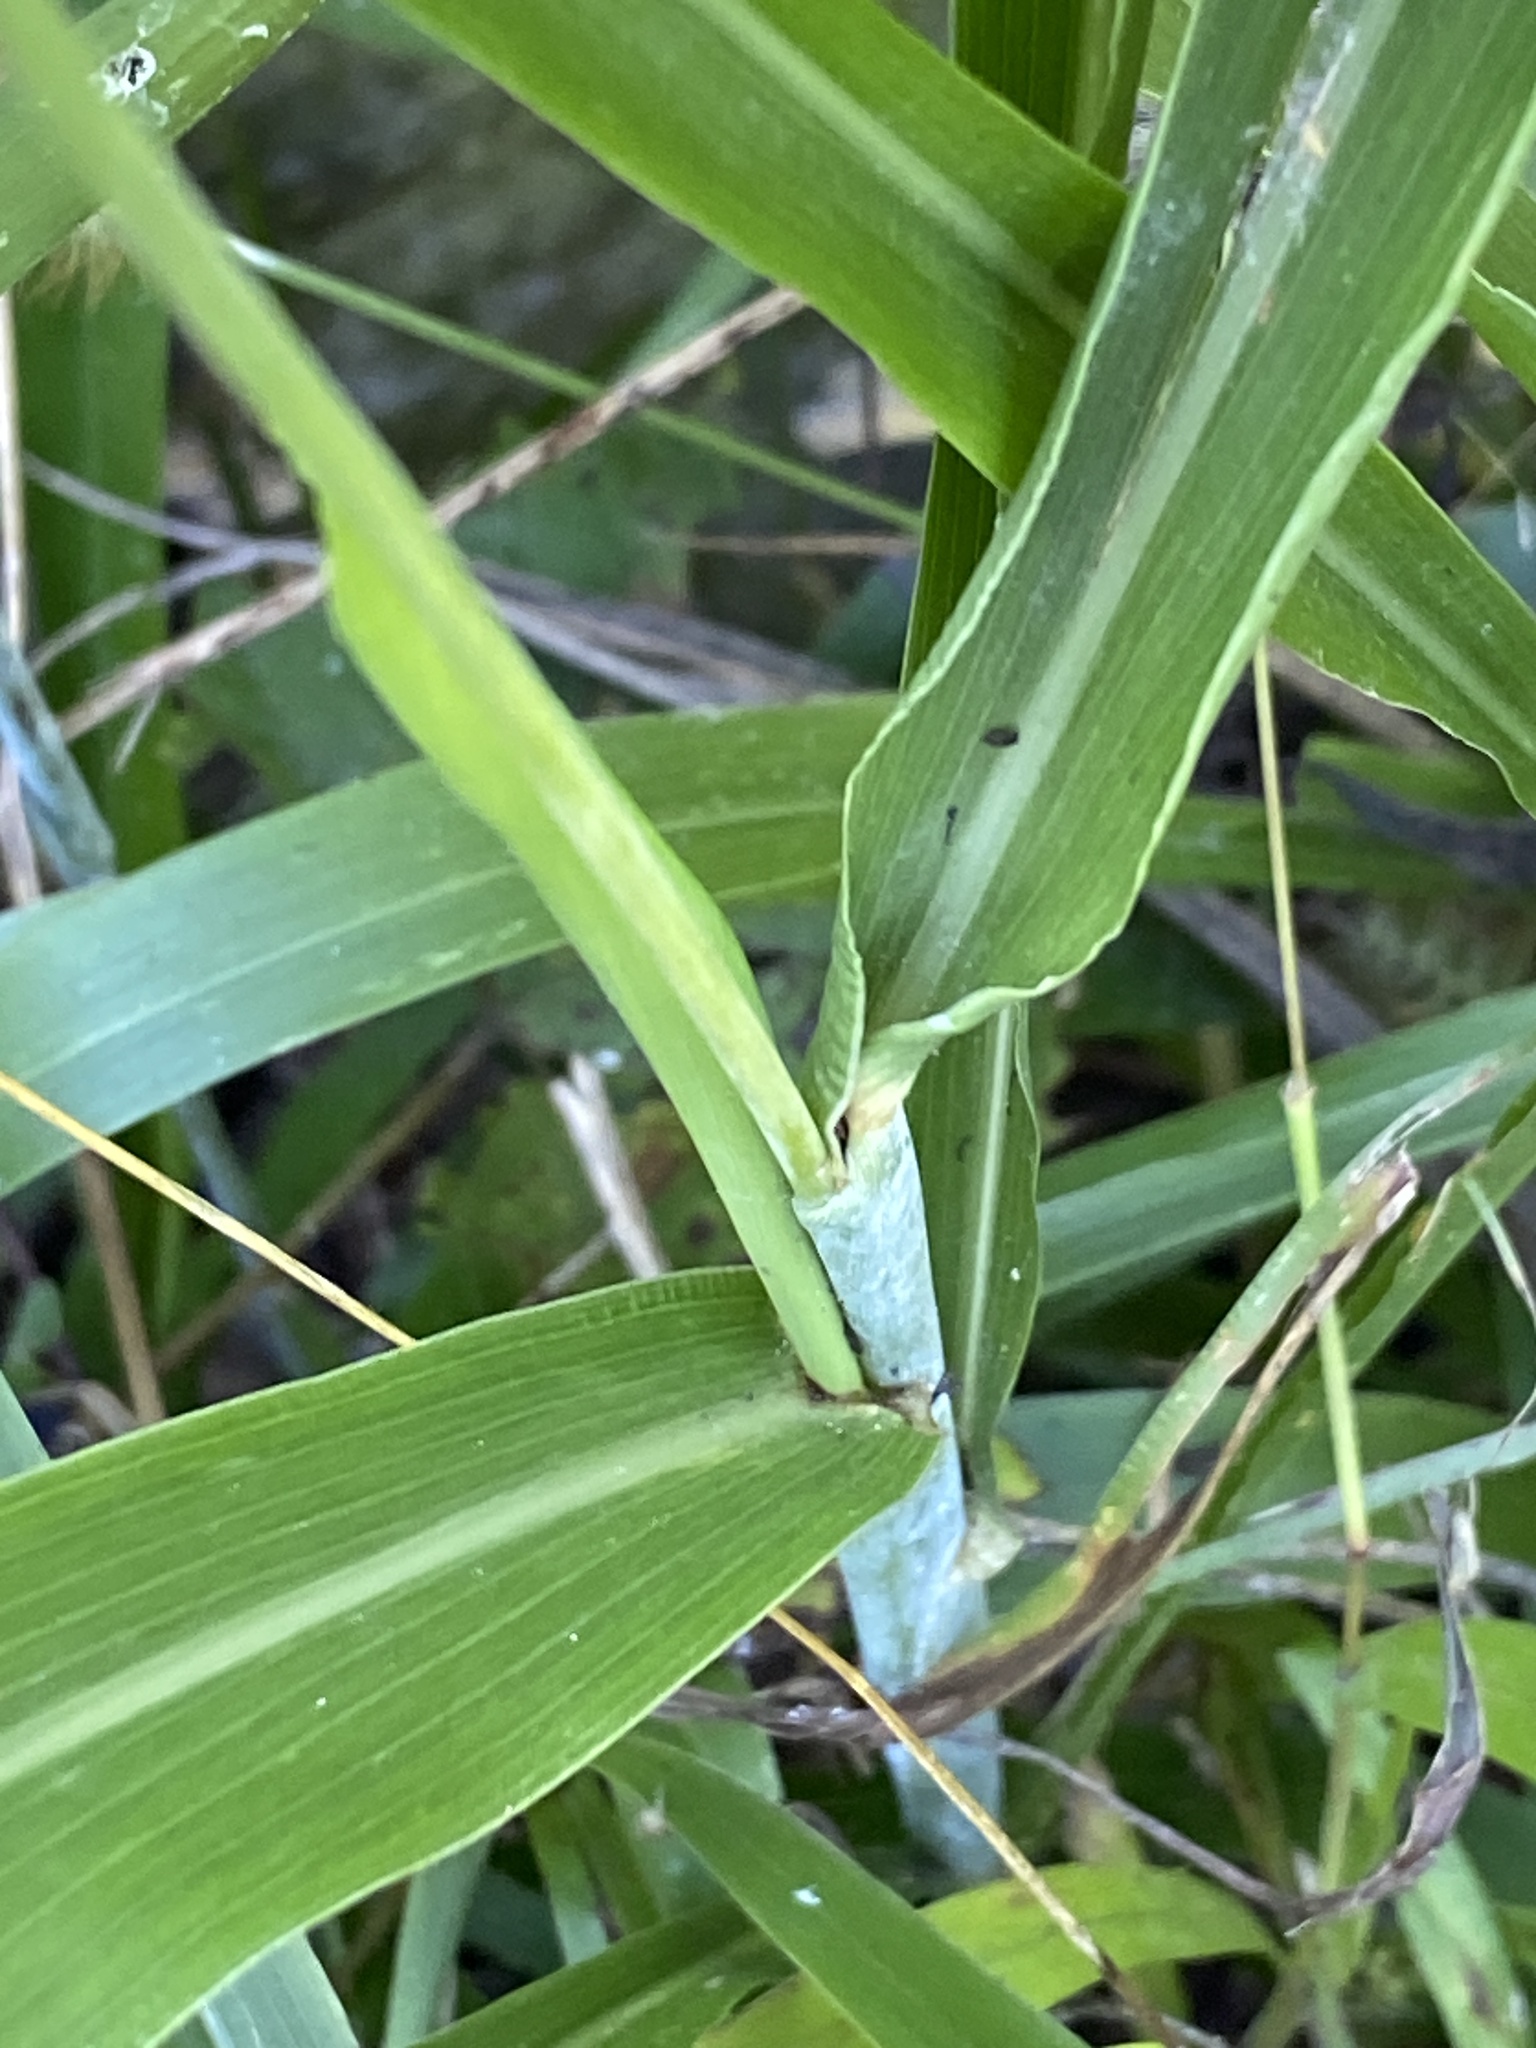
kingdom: Plantae
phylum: Tracheophyta
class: Liliopsida
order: Poales
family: Poaceae
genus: Sorghum
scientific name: Sorghum bicolor
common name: Sorghum
